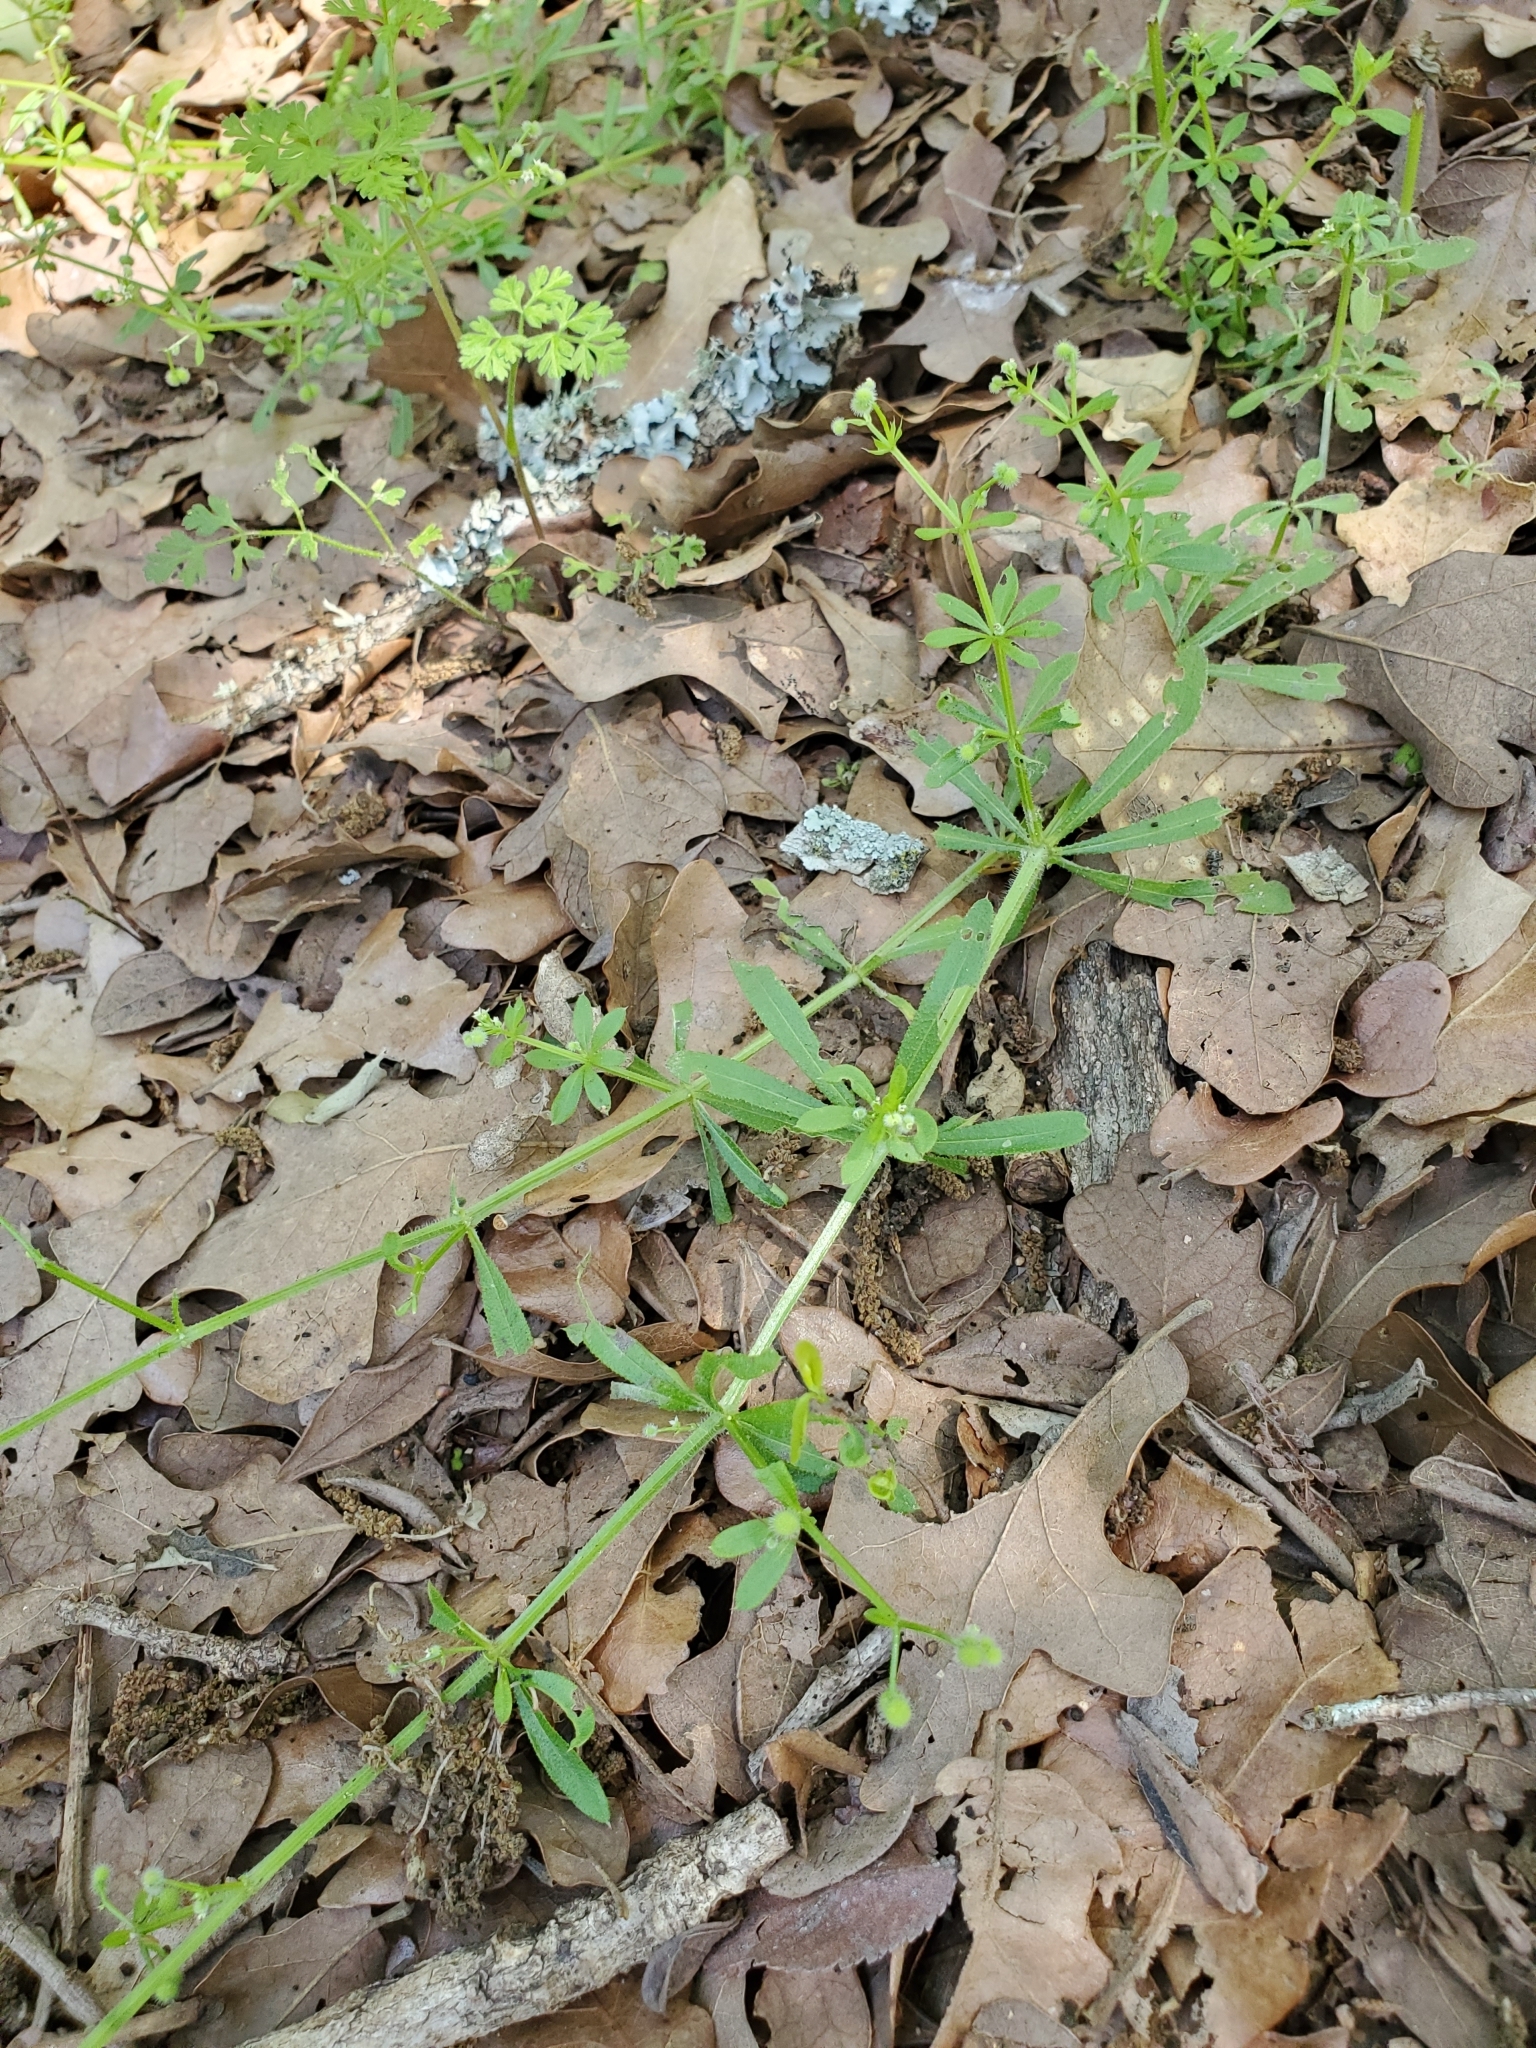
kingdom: Plantae
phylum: Tracheophyta
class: Magnoliopsida
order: Gentianales
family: Rubiaceae
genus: Galium
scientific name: Galium aparine
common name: Cleavers
